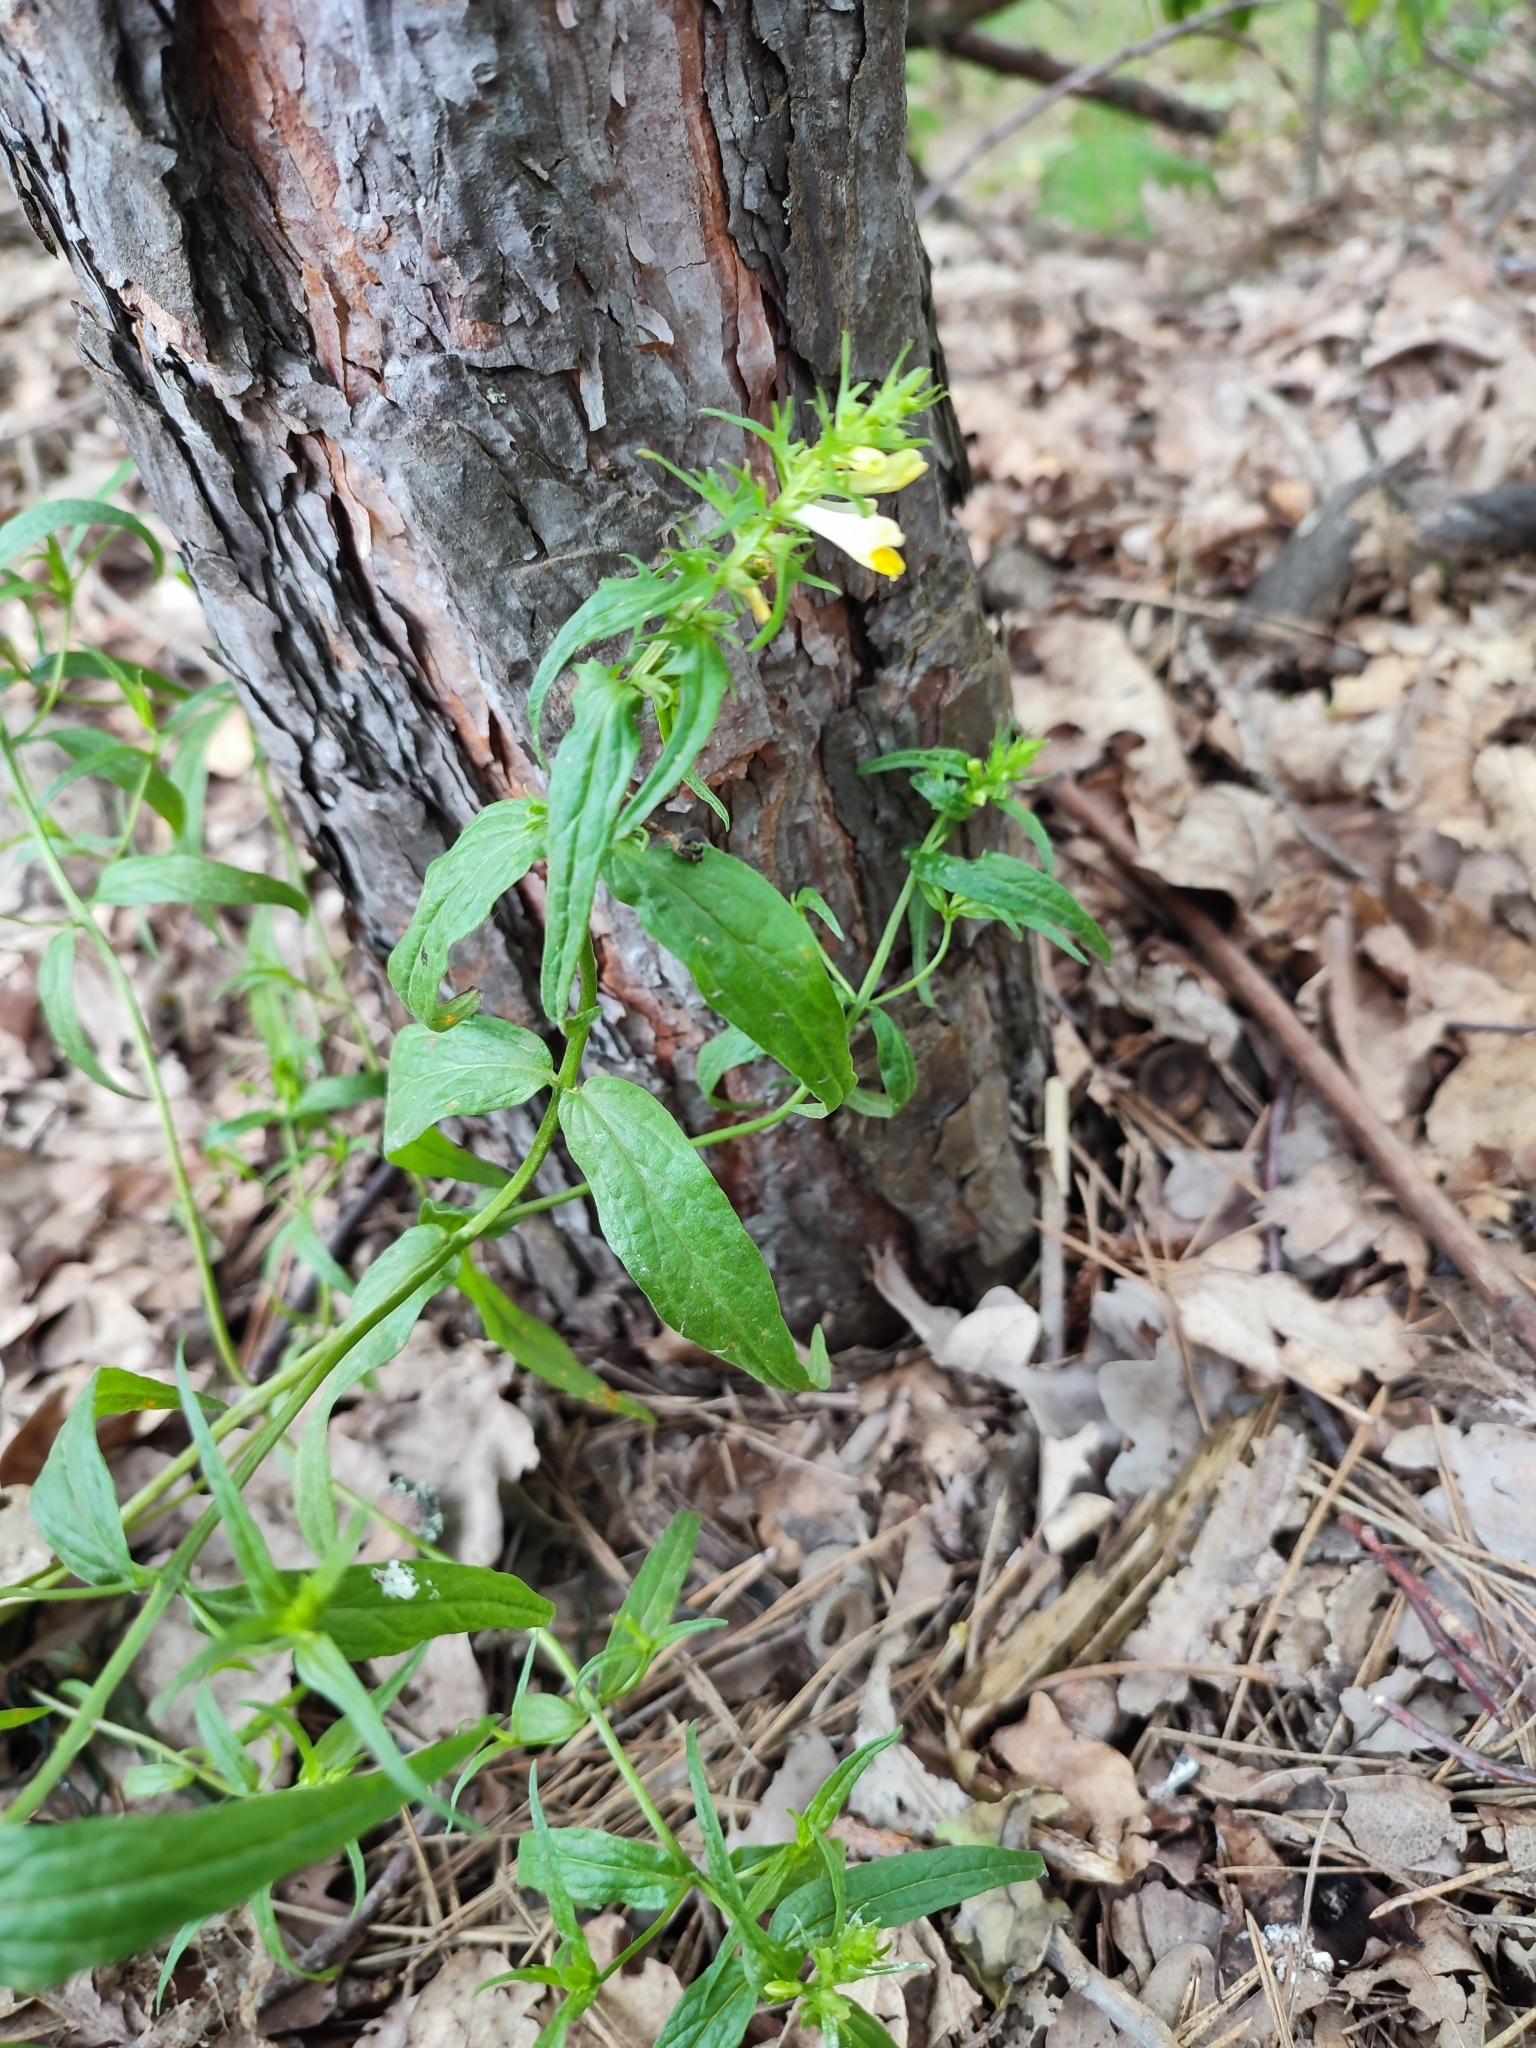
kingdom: Plantae
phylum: Tracheophyta
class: Magnoliopsida
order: Lamiales
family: Orobanchaceae
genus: Melampyrum
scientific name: Melampyrum pratense
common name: Common cow-wheat
